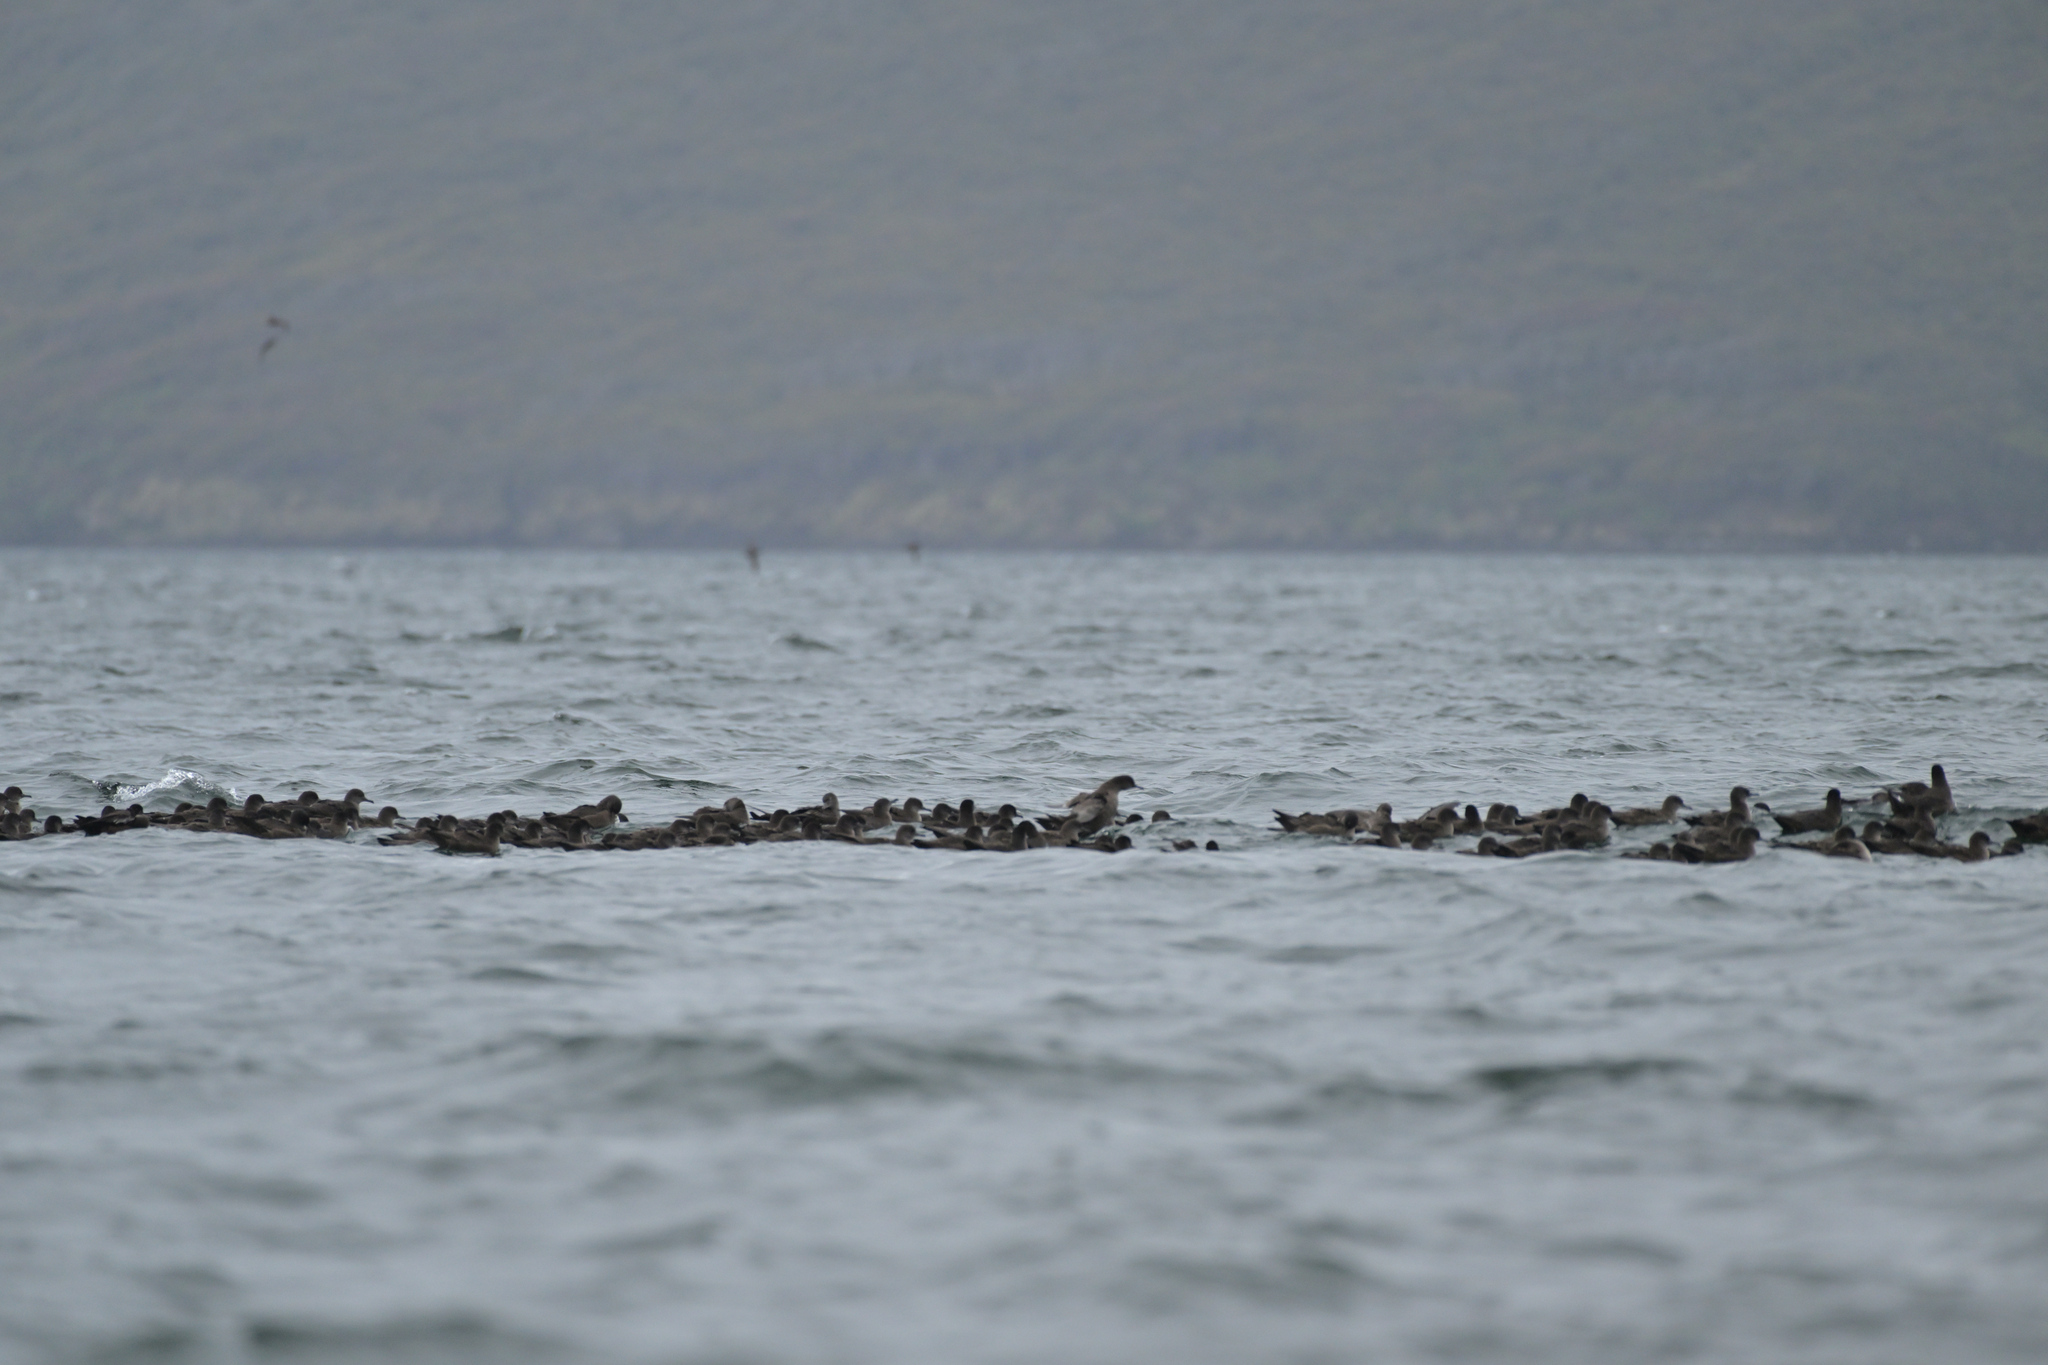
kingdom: Animalia
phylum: Chordata
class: Aves
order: Procellariiformes
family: Procellariidae
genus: Puffinus
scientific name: Puffinus griseus
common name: Sooty shearwater
